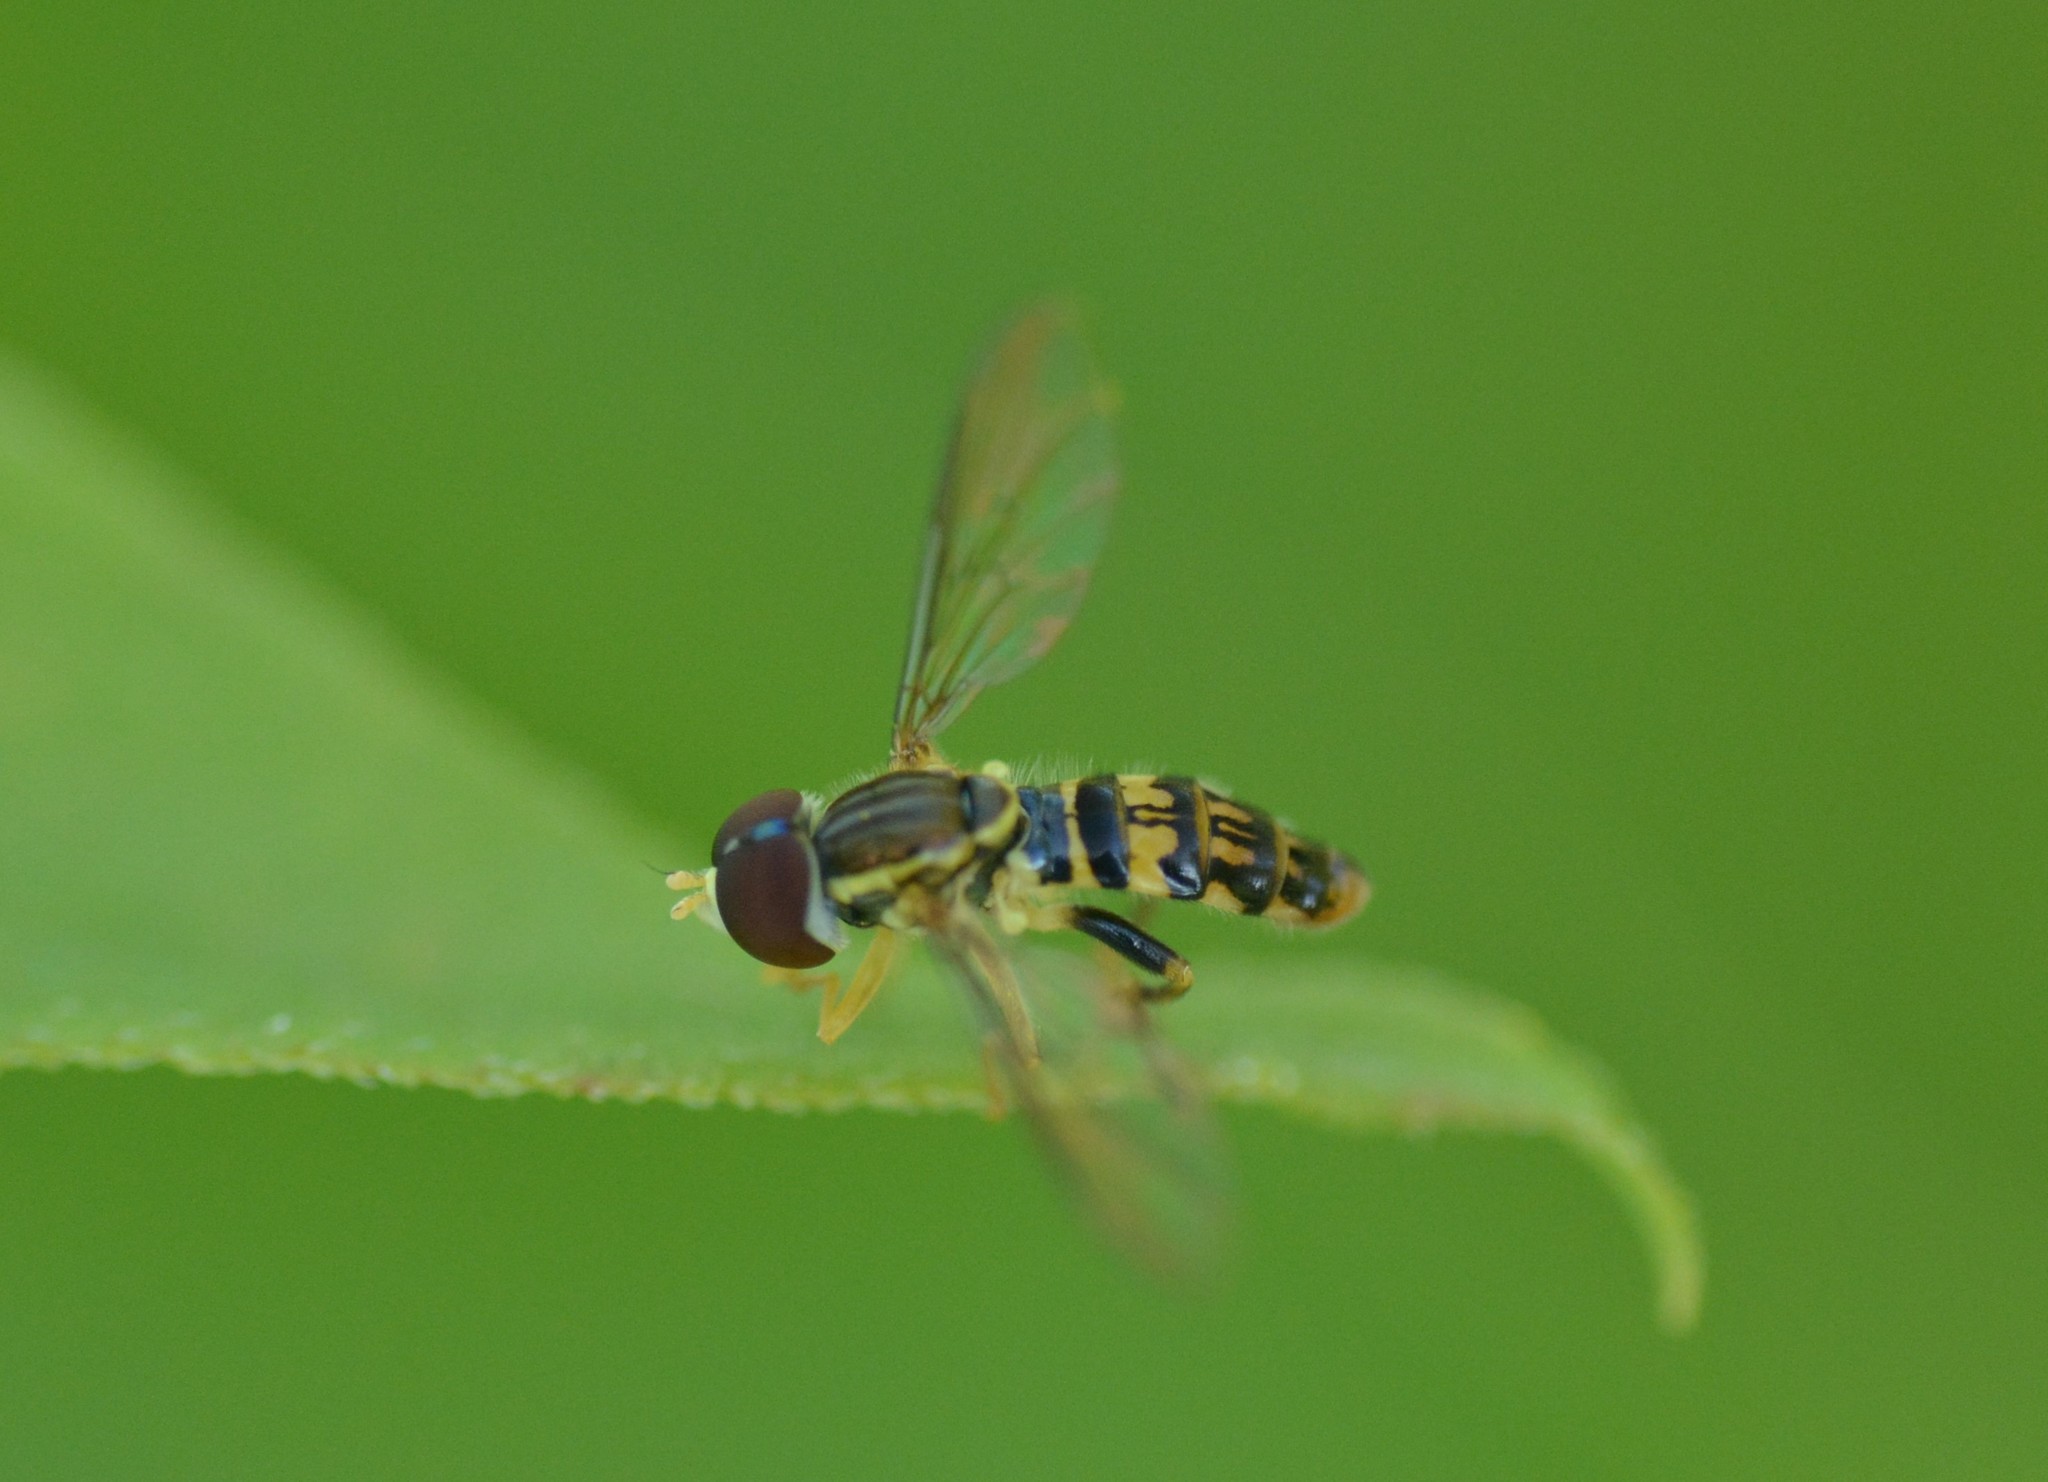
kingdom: Animalia
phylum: Arthropoda
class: Insecta
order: Diptera
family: Syrphidae
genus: Toxomerus
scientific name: Toxomerus geminatus
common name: Eastern calligrapher
